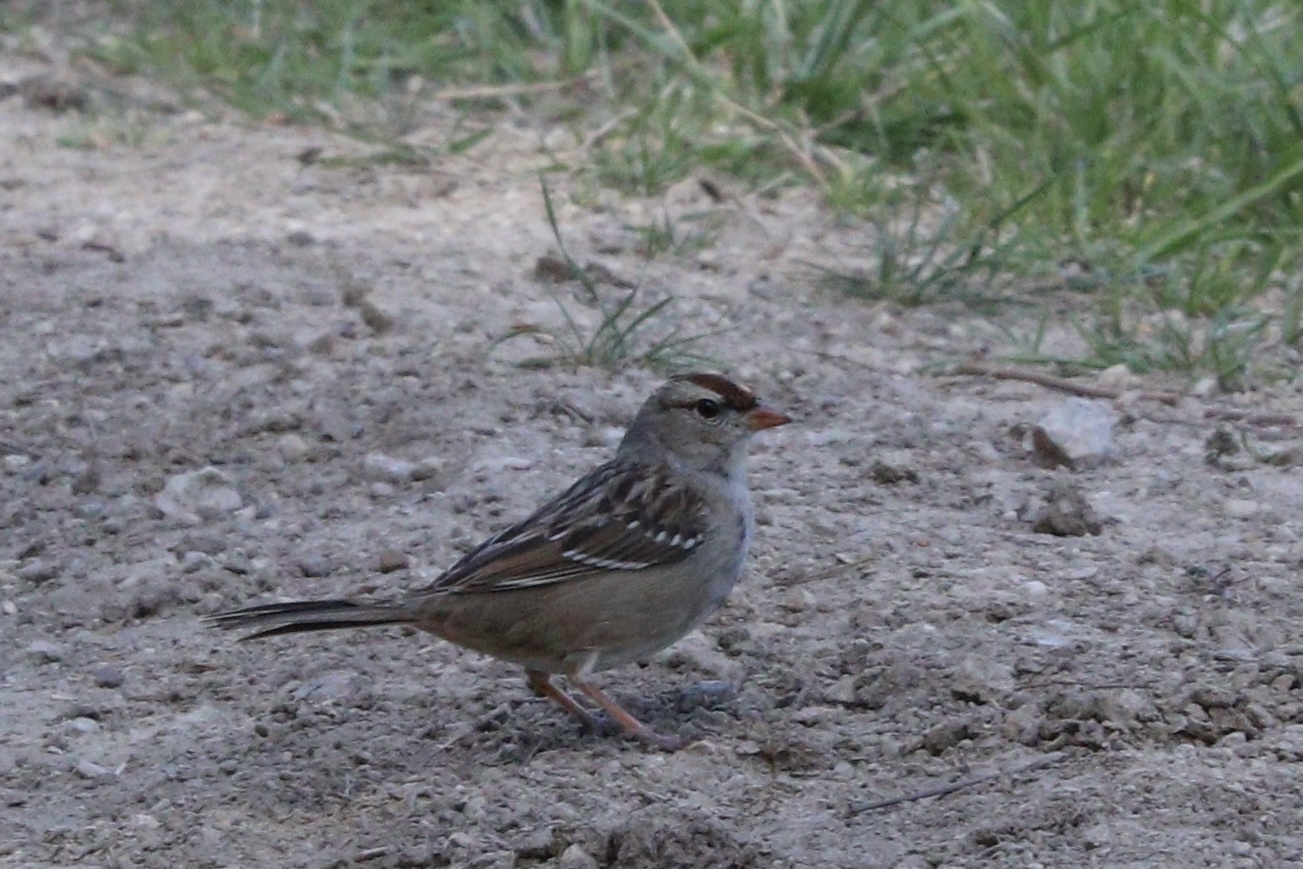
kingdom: Animalia
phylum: Chordata
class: Aves
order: Passeriformes
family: Passerellidae
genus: Zonotrichia
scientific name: Zonotrichia leucophrys
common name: White-crowned sparrow
